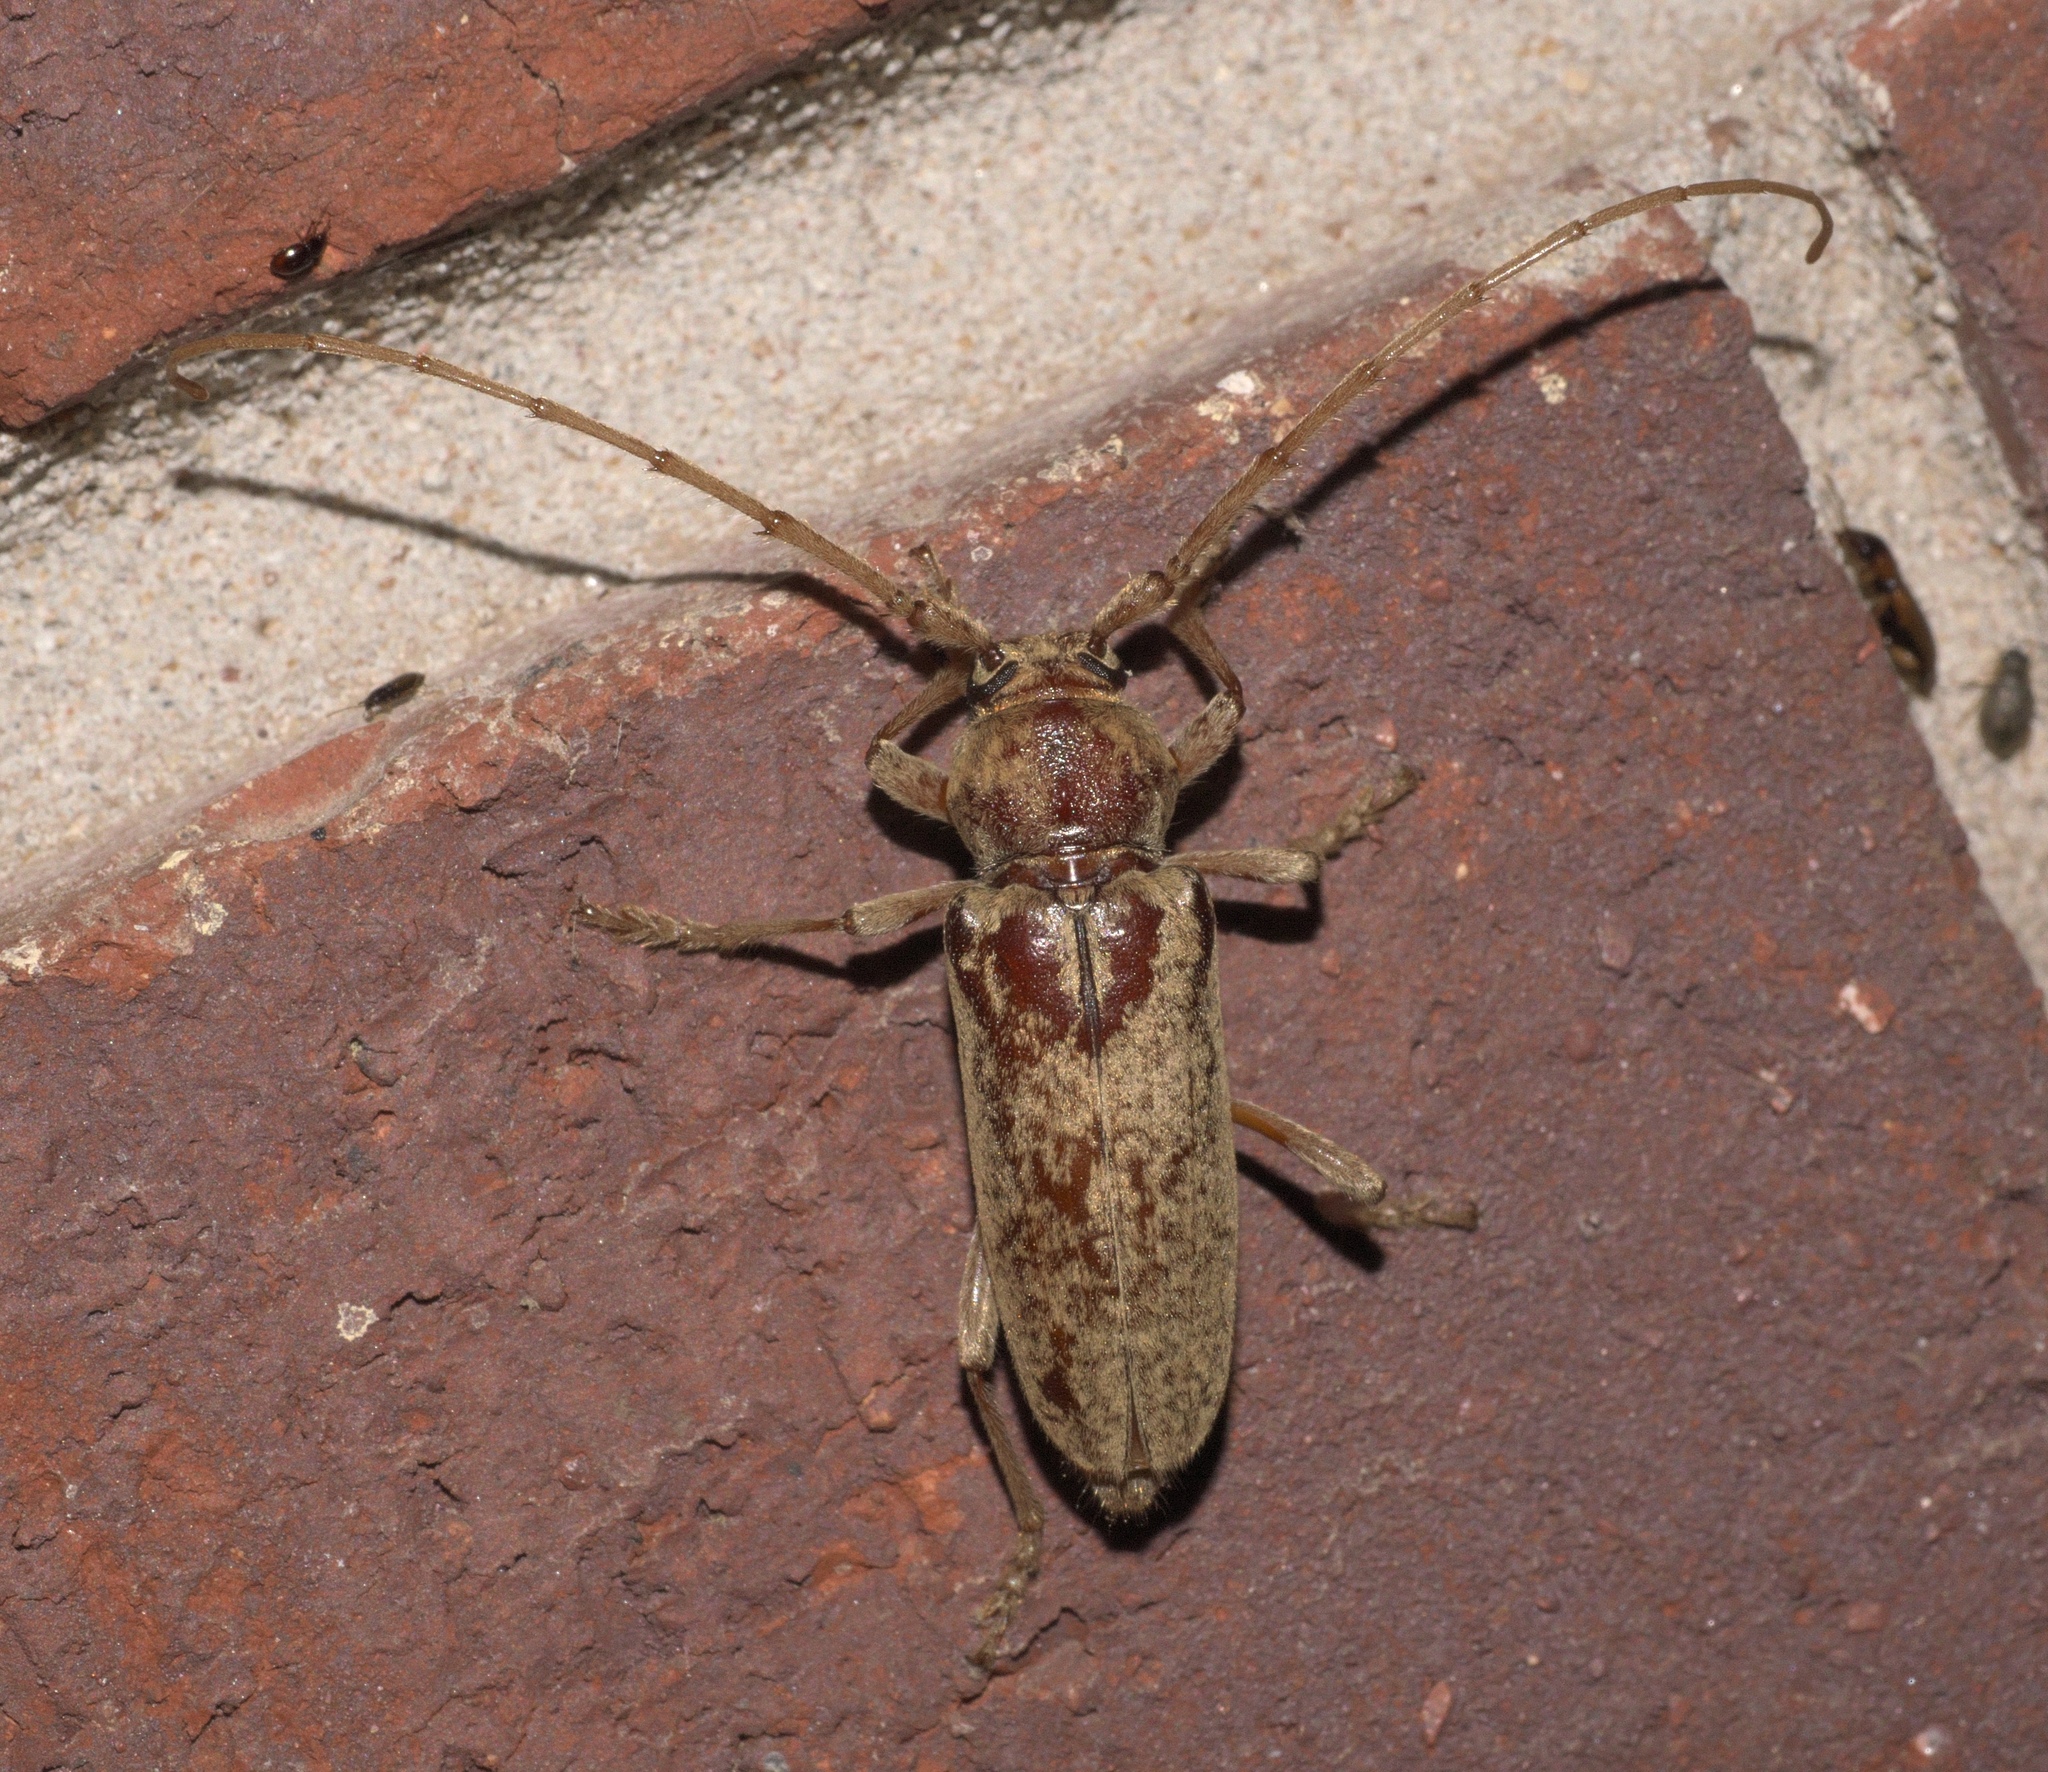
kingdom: Animalia
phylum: Arthropoda
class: Insecta
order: Coleoptera
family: Cerambycidae
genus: Enaphalodes
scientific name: Enaphalodes rufulus
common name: Red oak borer
